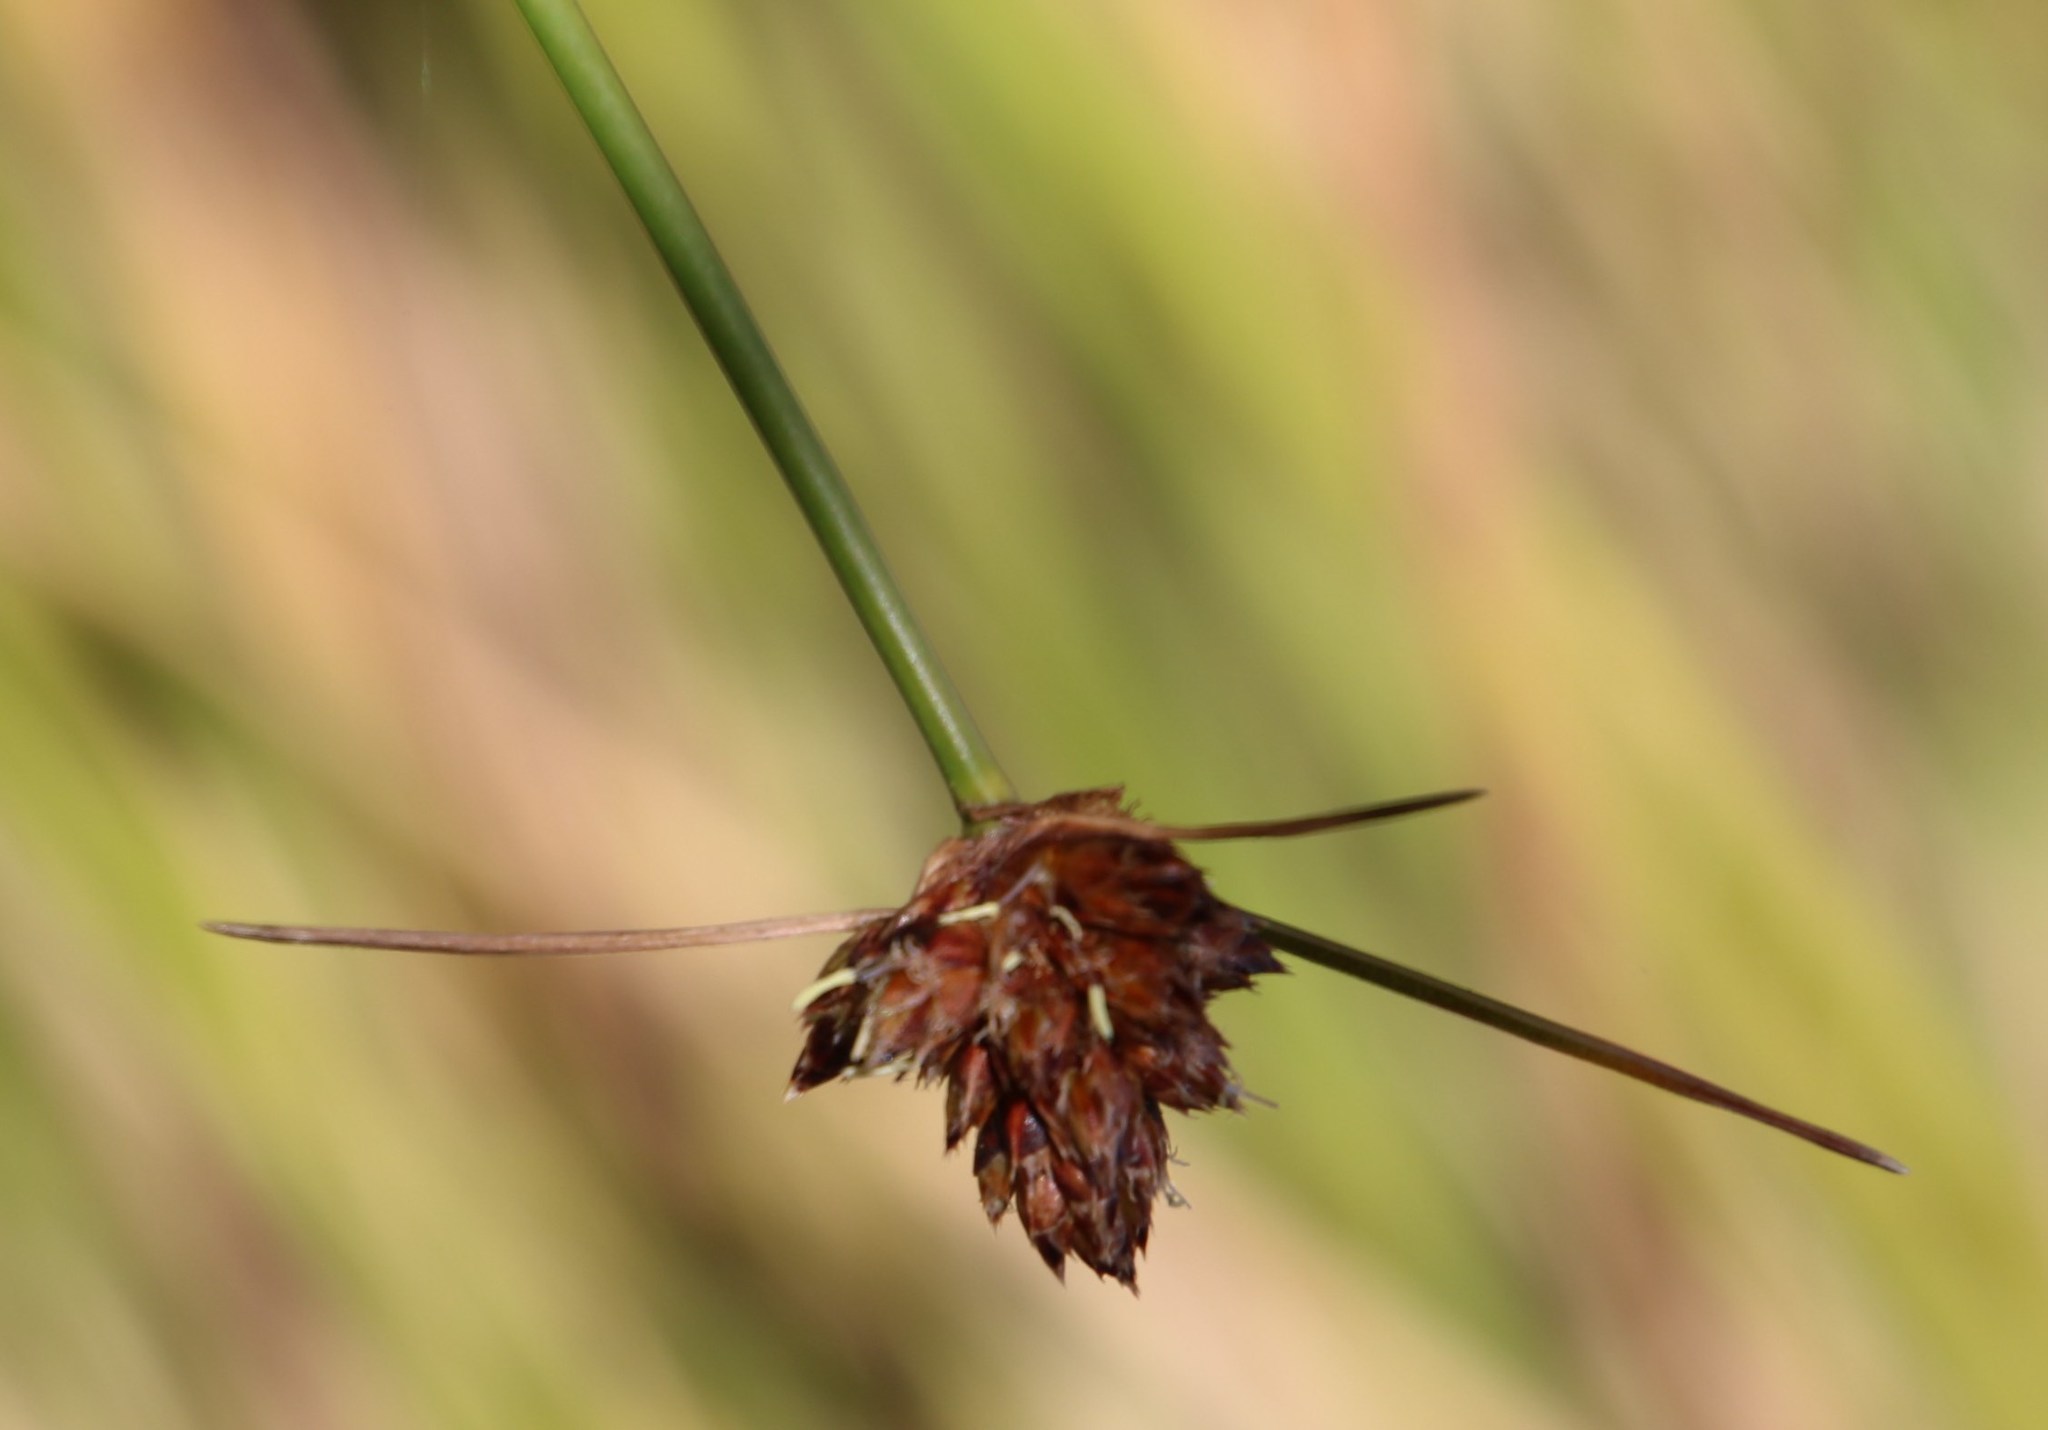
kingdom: Plantae
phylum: Tracheophyta
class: Liliopsida
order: Poales
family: Cyperaceae
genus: Ficinia
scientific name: Ficinia brevifolia
